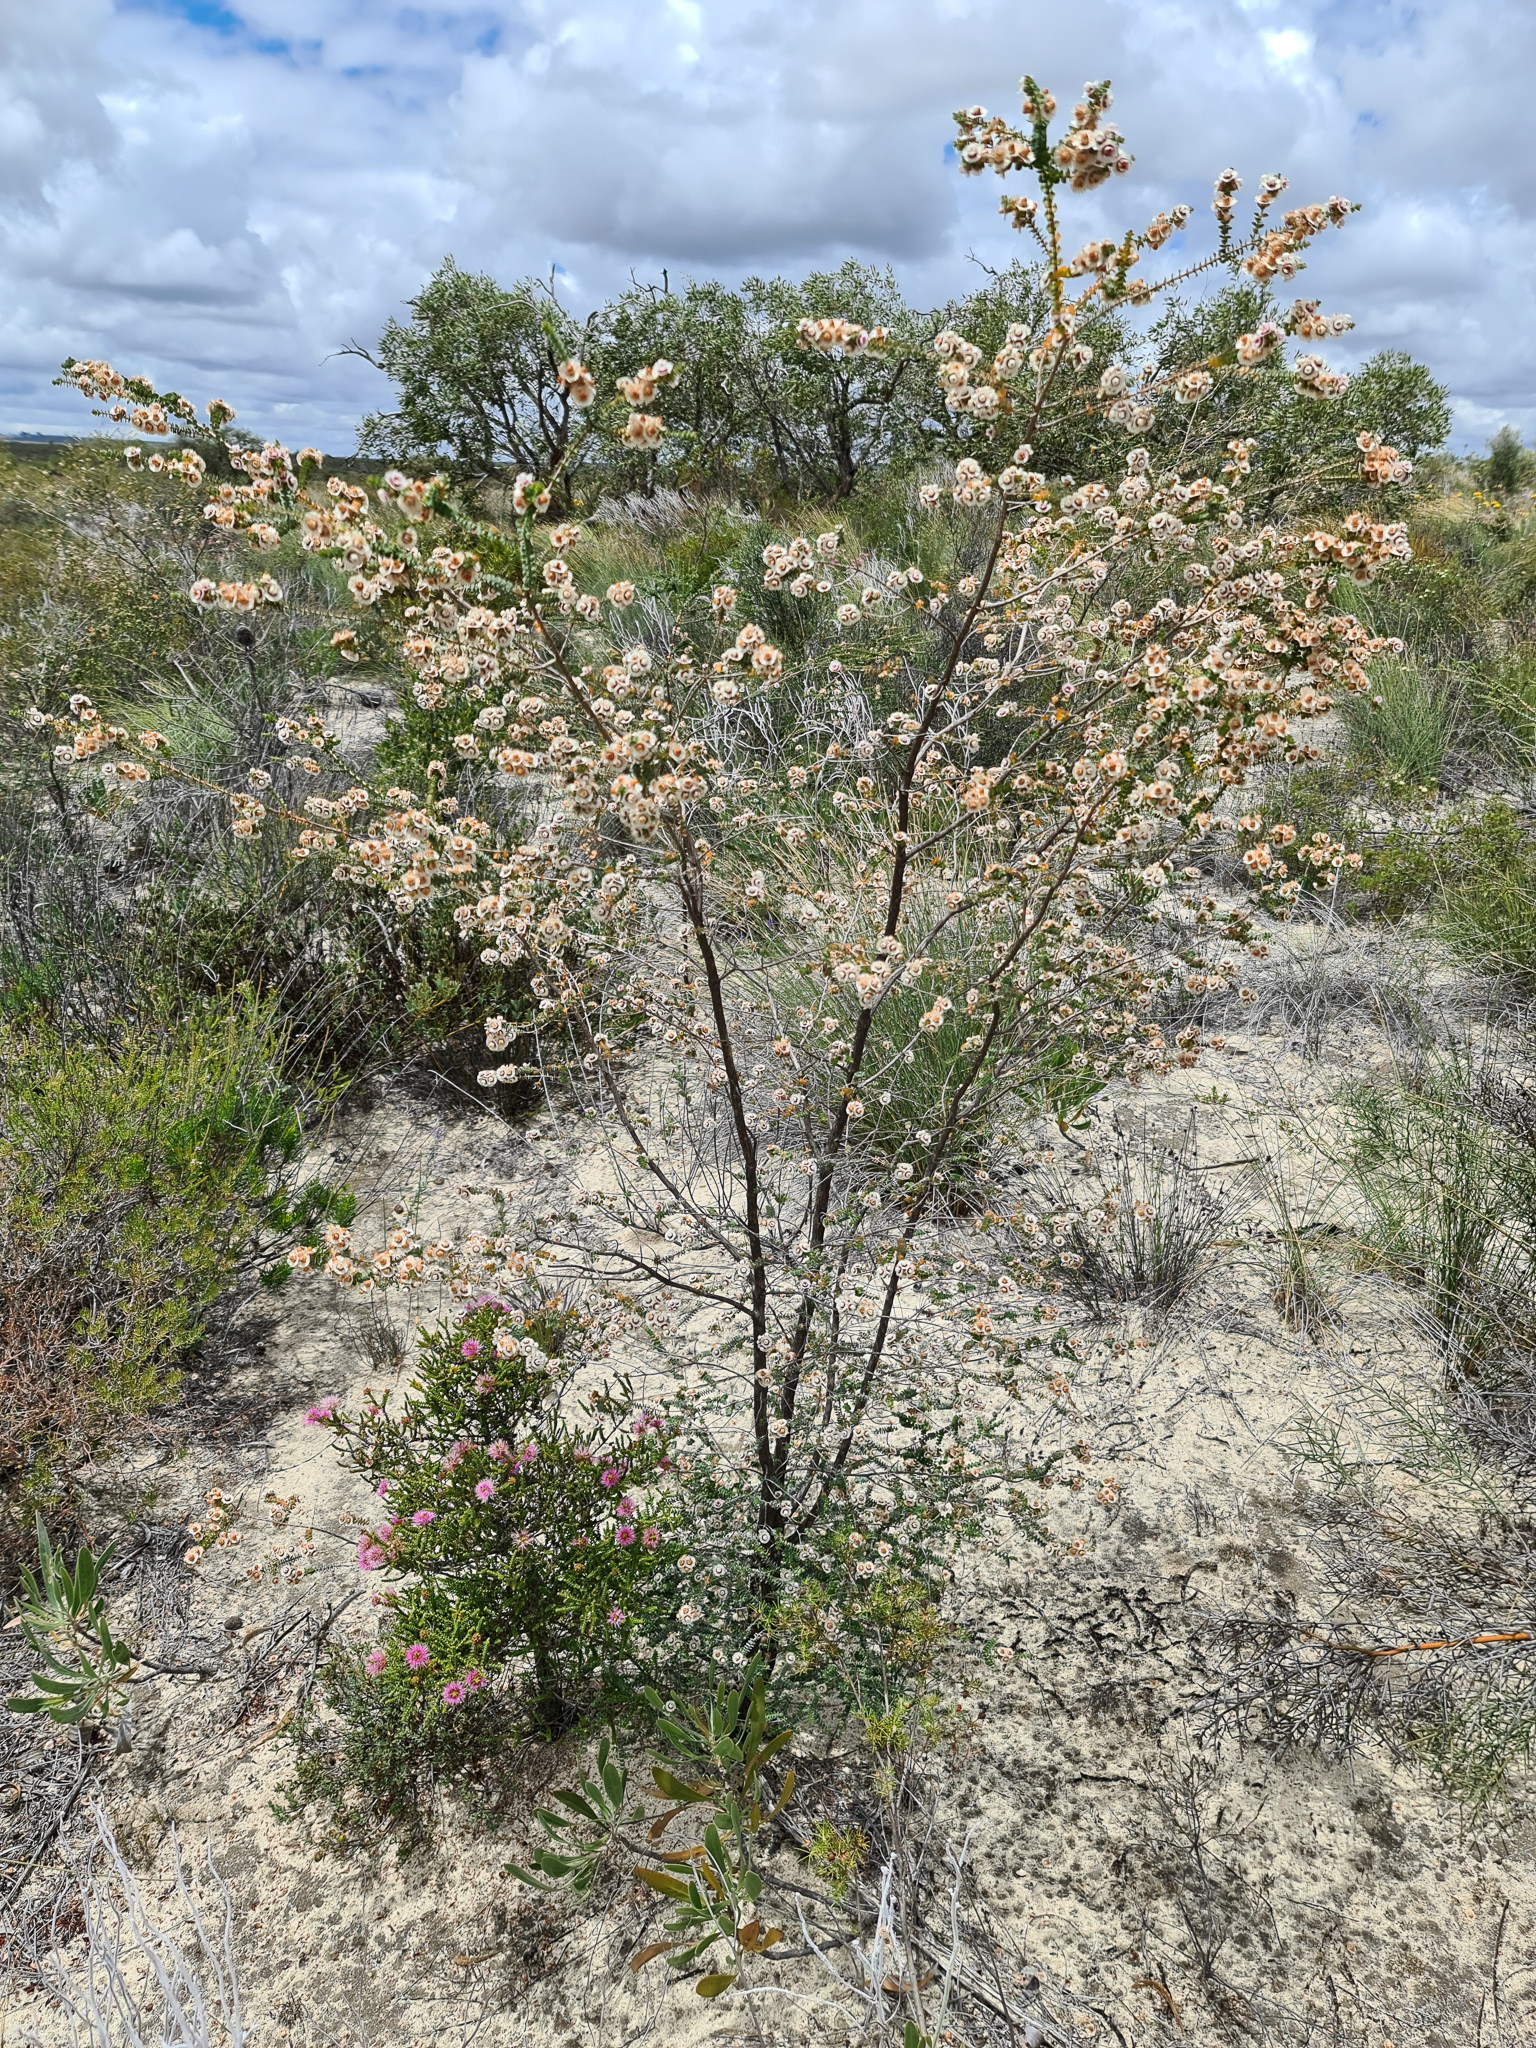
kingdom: Plantae
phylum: Tracheophyta
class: Magnoliopsida
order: Myrtales
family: Myrtaceae
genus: Verticordia
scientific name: Verticordia fragrans
